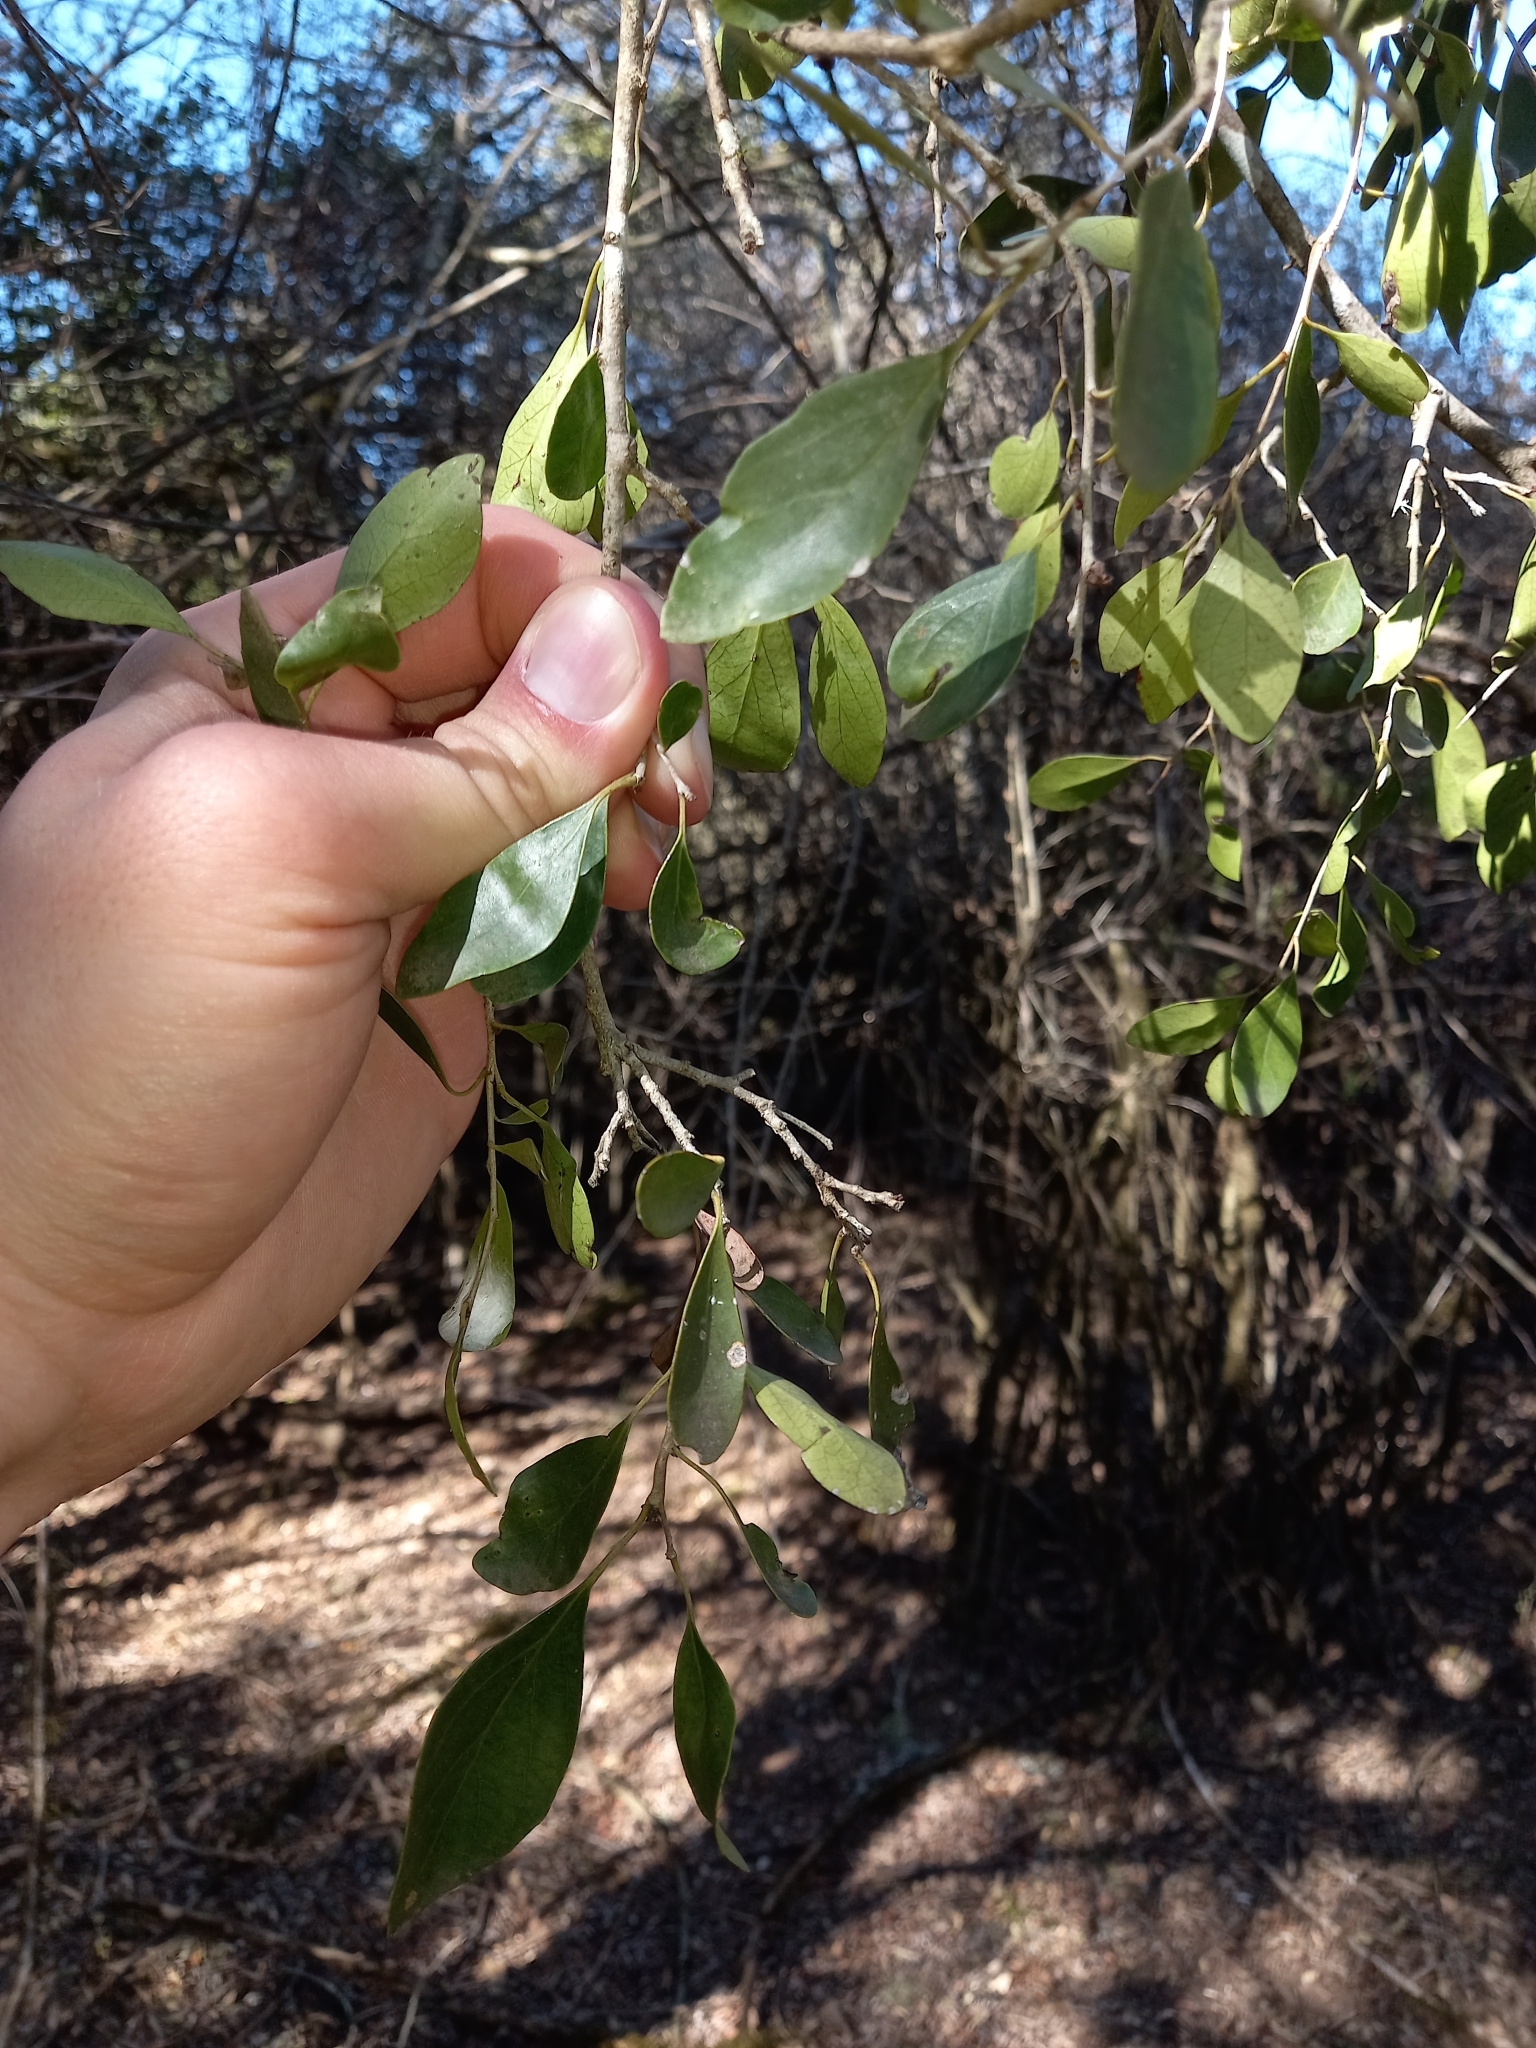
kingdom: Plantae
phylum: Tracheophyta
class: Magnoliopsida
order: Malpighiales
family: Salicaceae
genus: Scolopia
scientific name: Scolopia zeyheri
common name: Thorn pear
